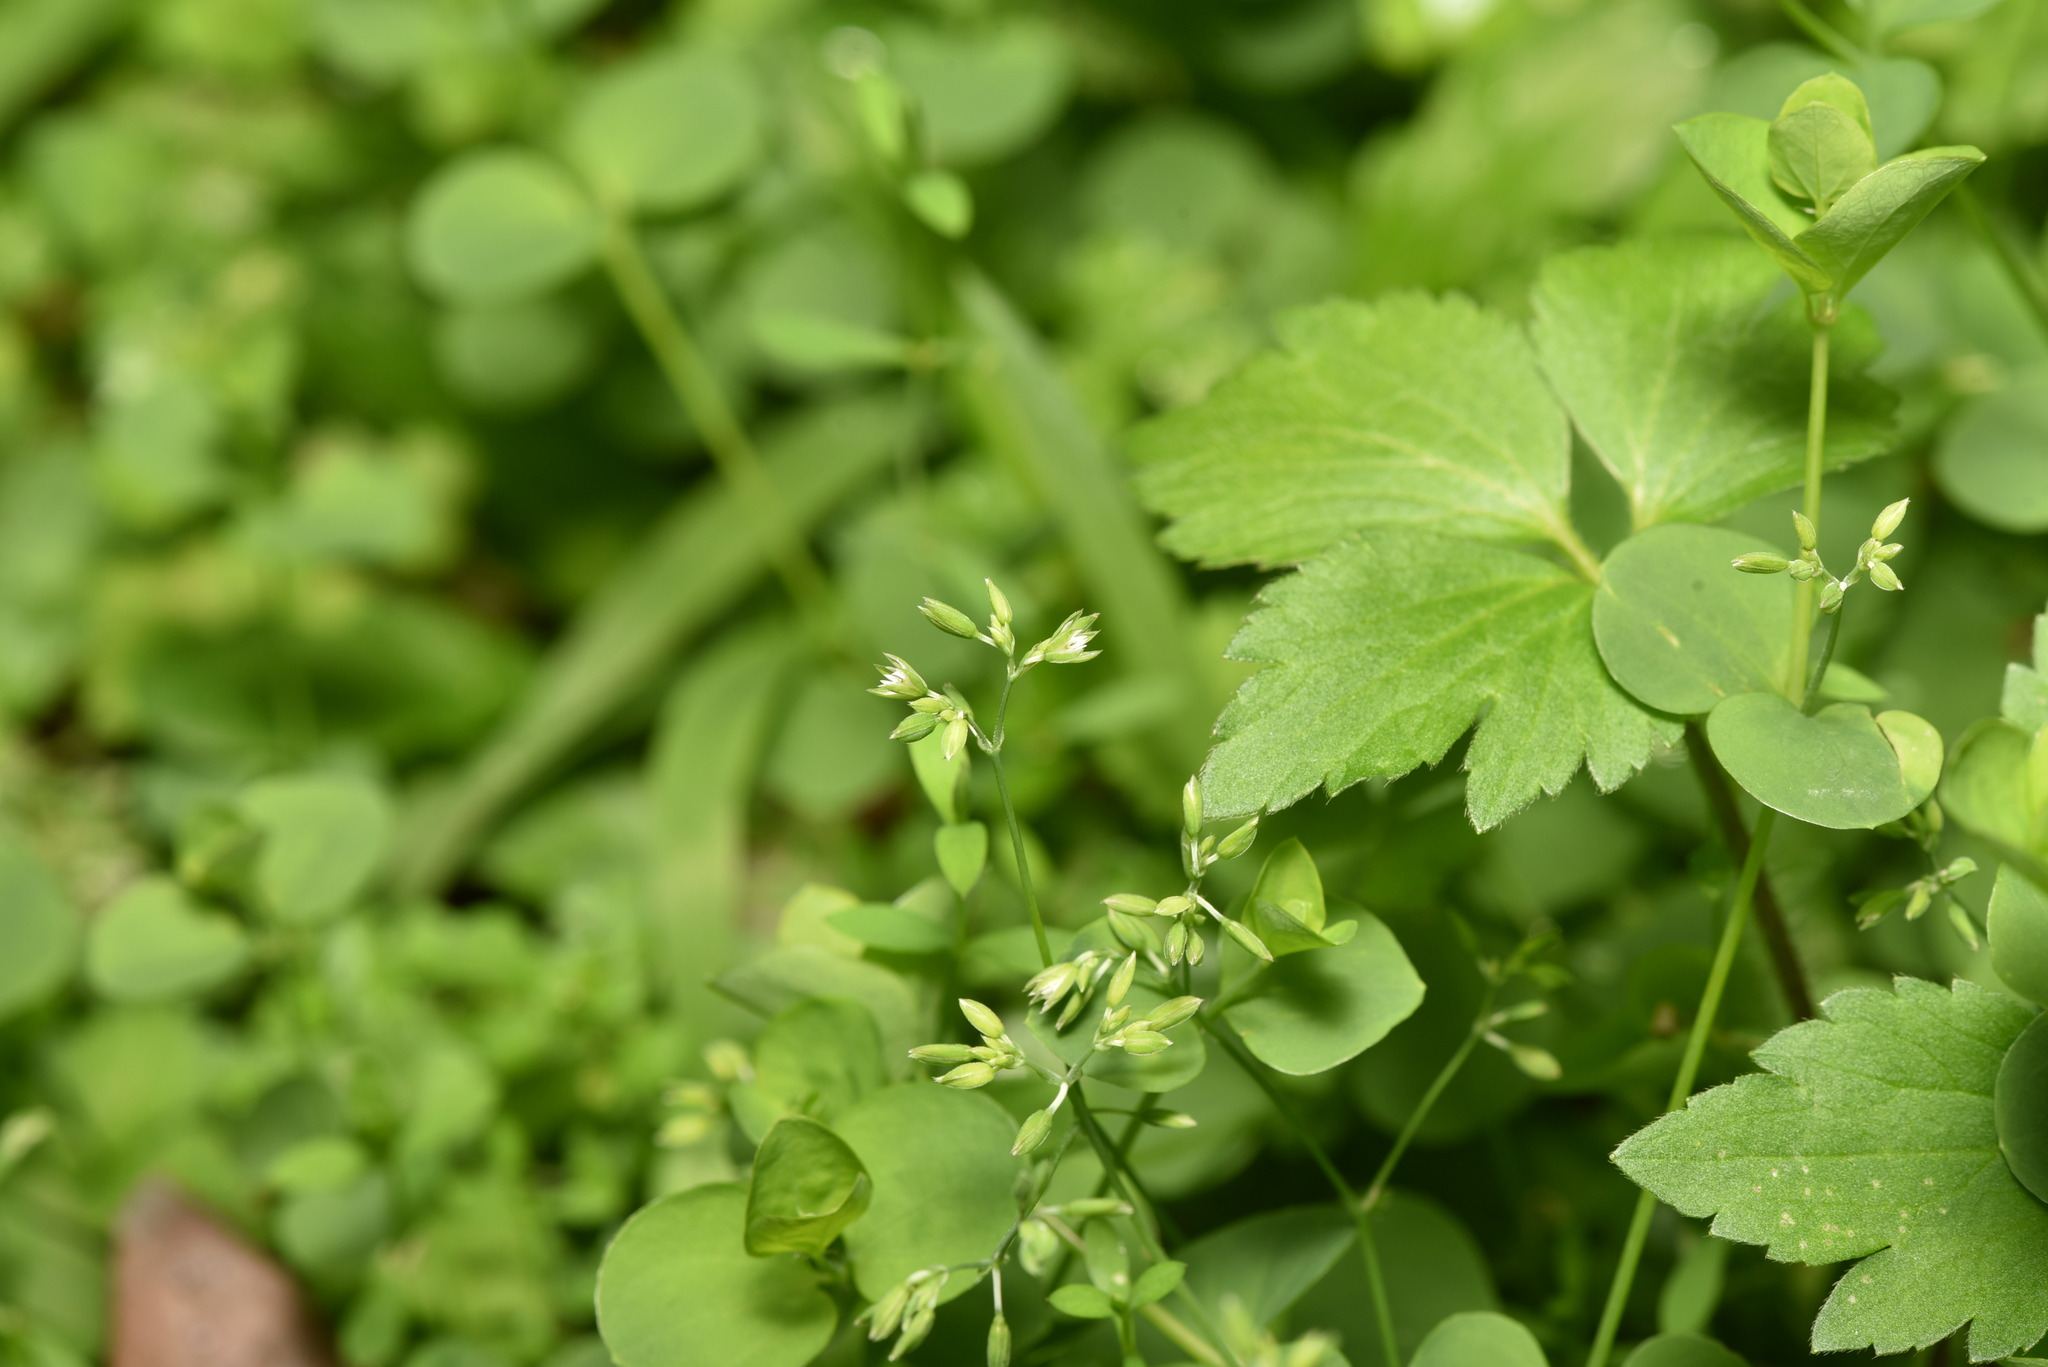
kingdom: Plantae
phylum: Tracheophyta
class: Magnoliopsida
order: Caryophyllales
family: Caryophyllaceae
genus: Drymaria
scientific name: Drymaria cordata
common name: Whitesnow
